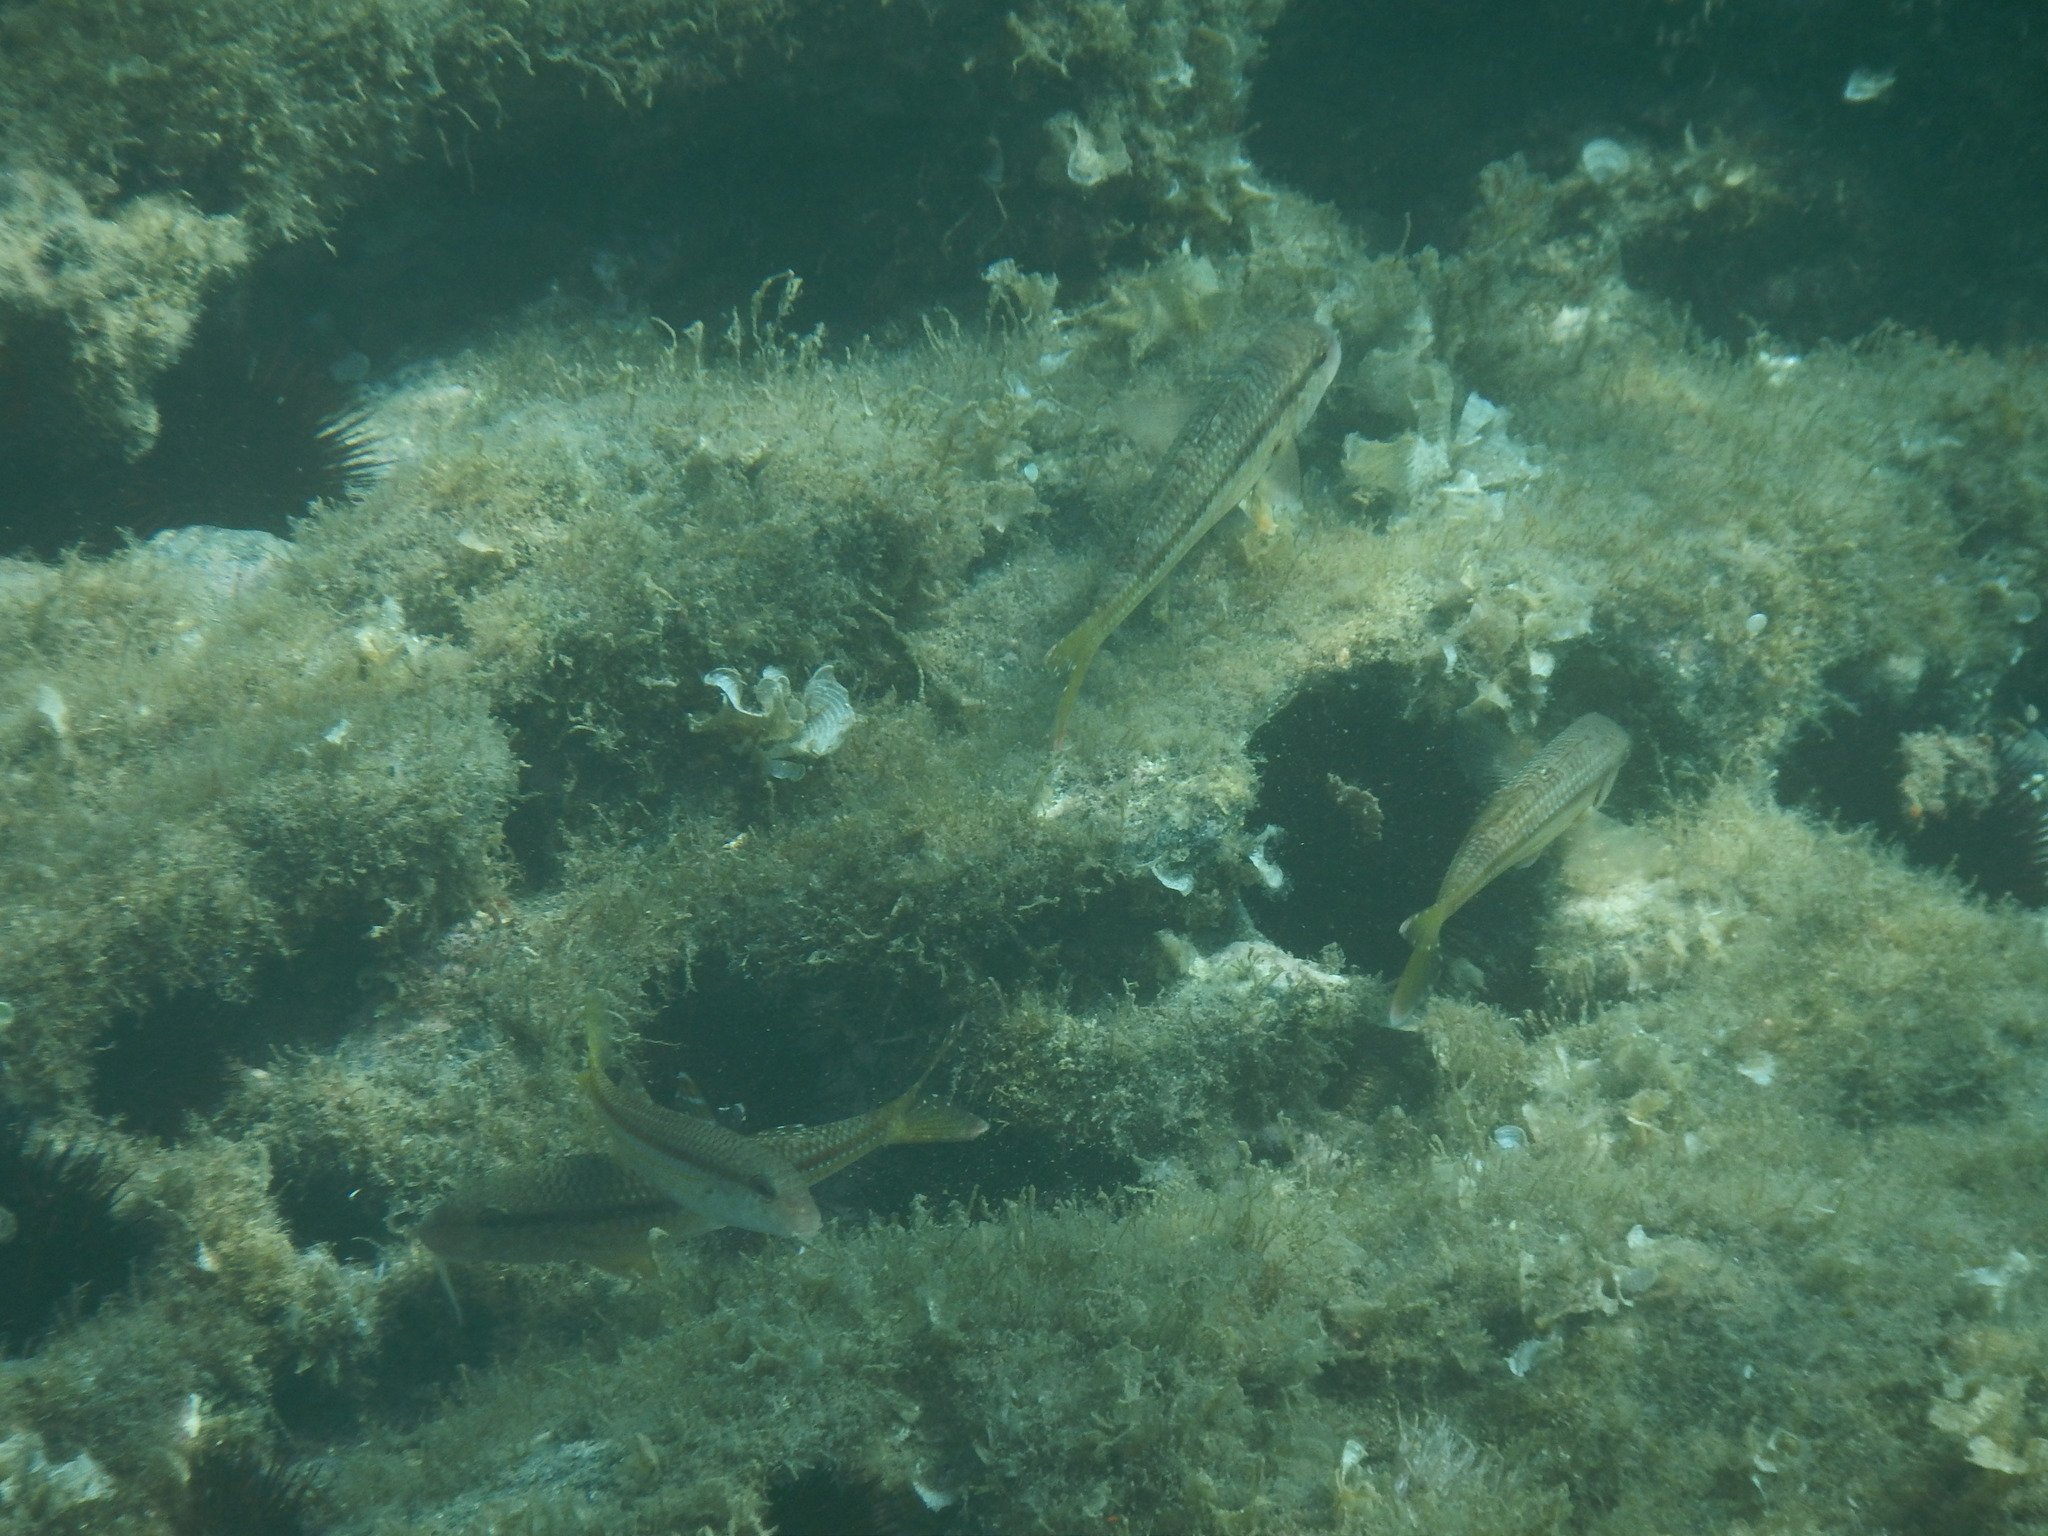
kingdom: Animalia
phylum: Chordata
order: Perciformes
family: Mullidae
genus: Mullus
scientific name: Mullus surmuletus
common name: Red mullet
